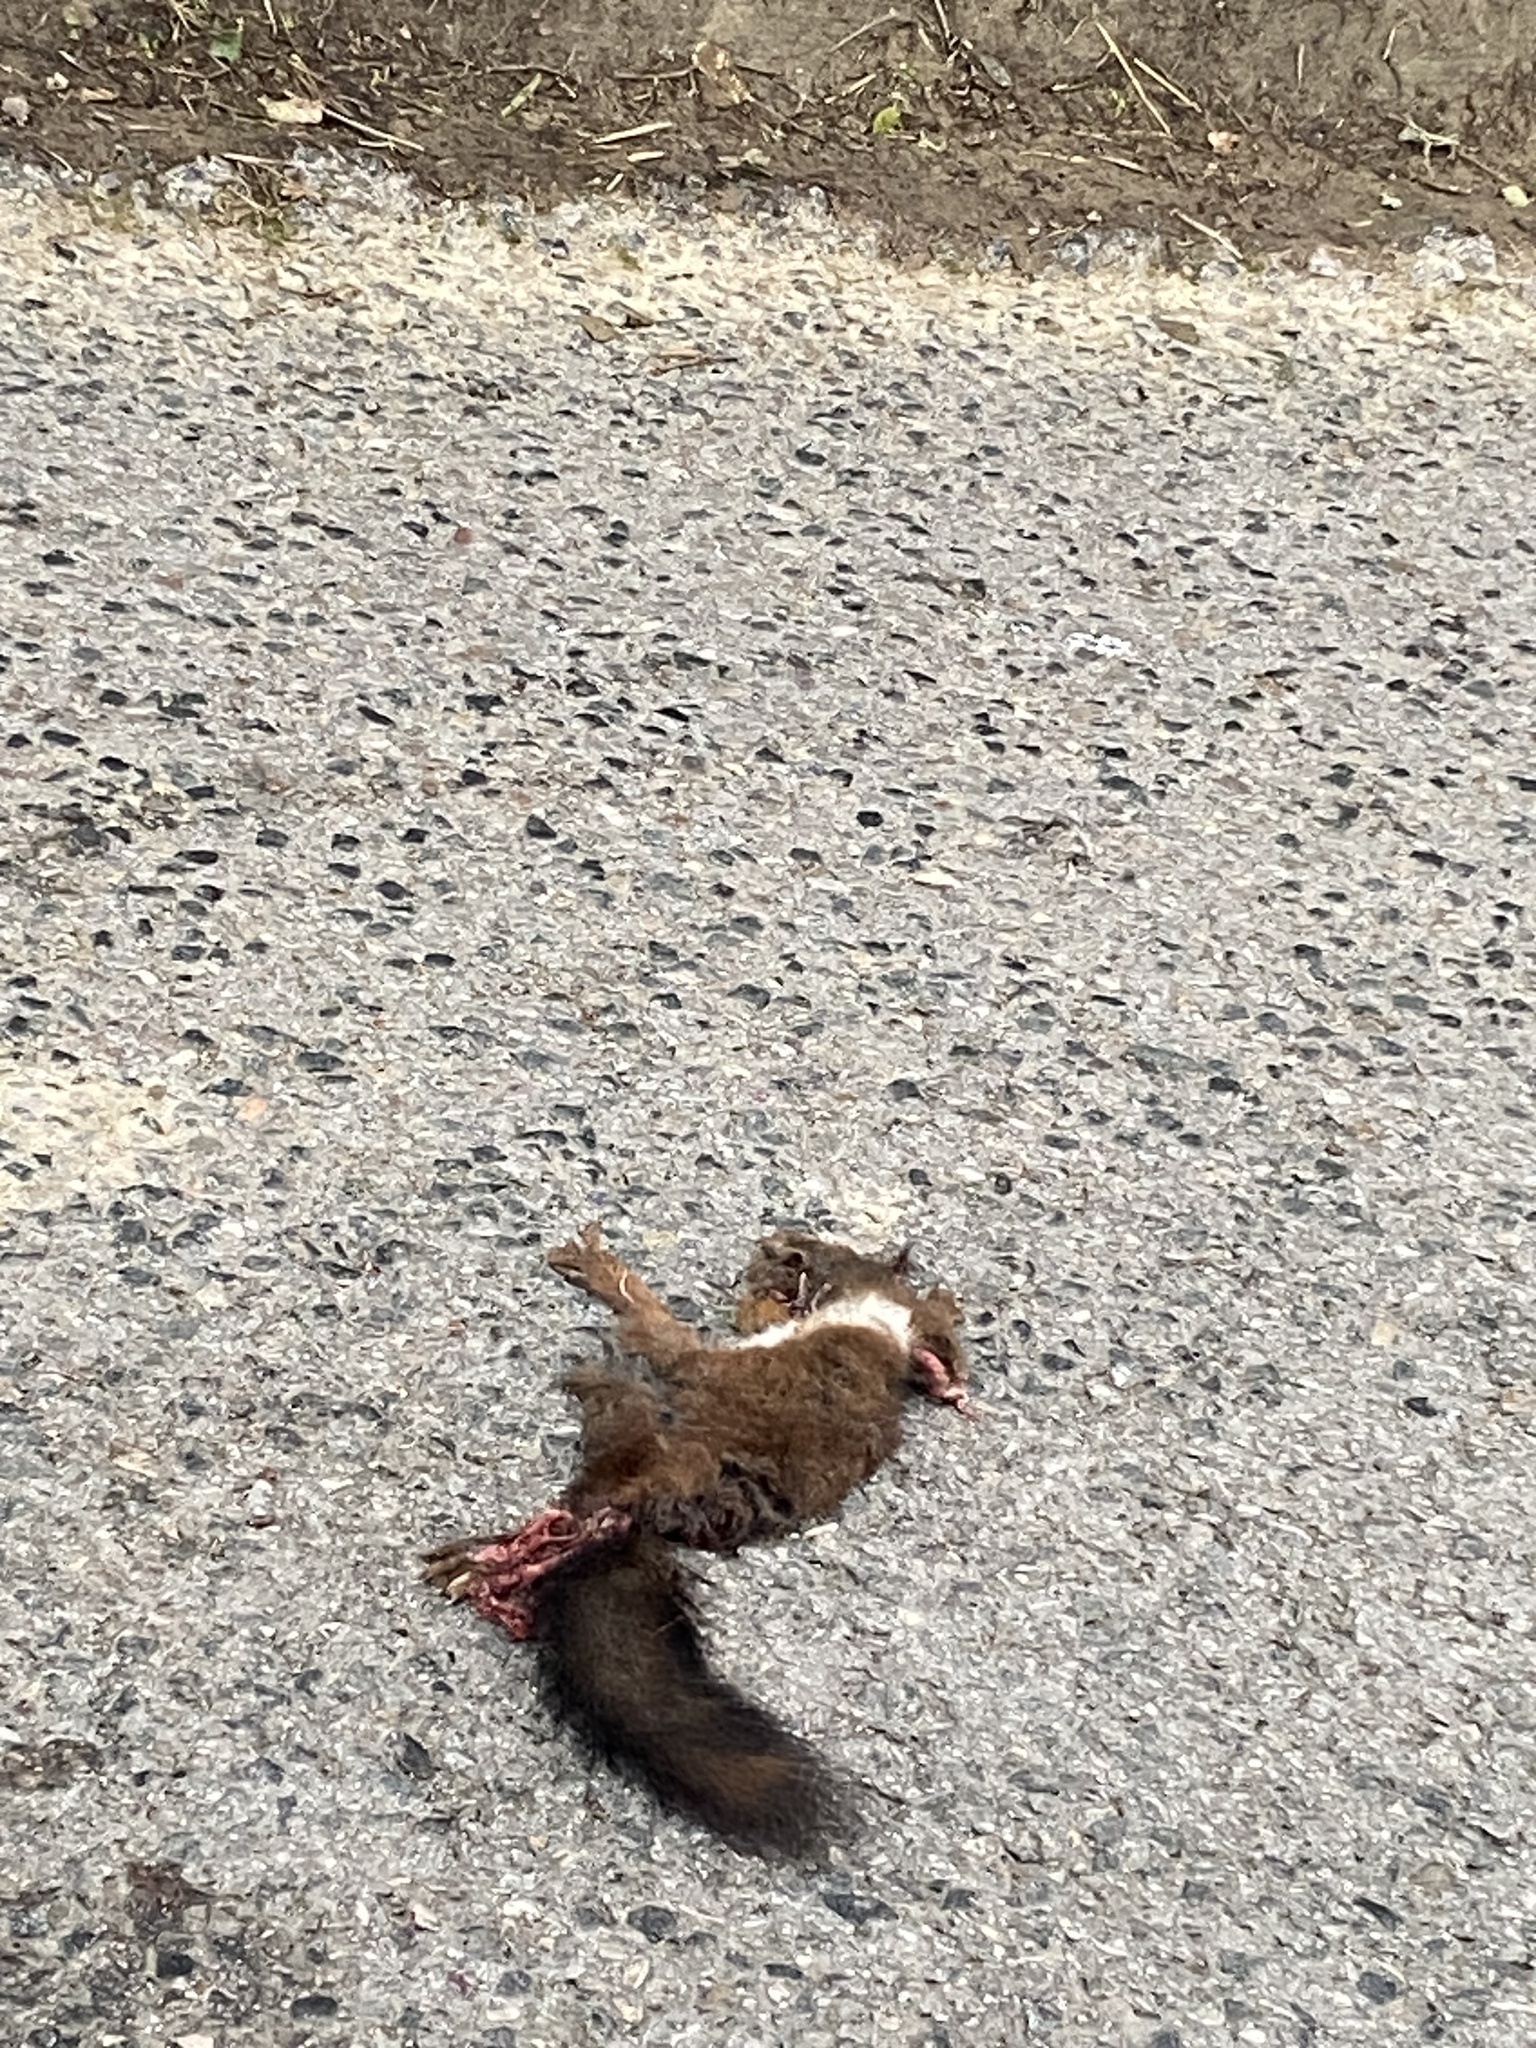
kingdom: Animalia
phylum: Chordata
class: Mammalia
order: Rodentia
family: Sciuridae
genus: Sciurus
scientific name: Sciurus vulgaris
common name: Eurasian red squirrel
